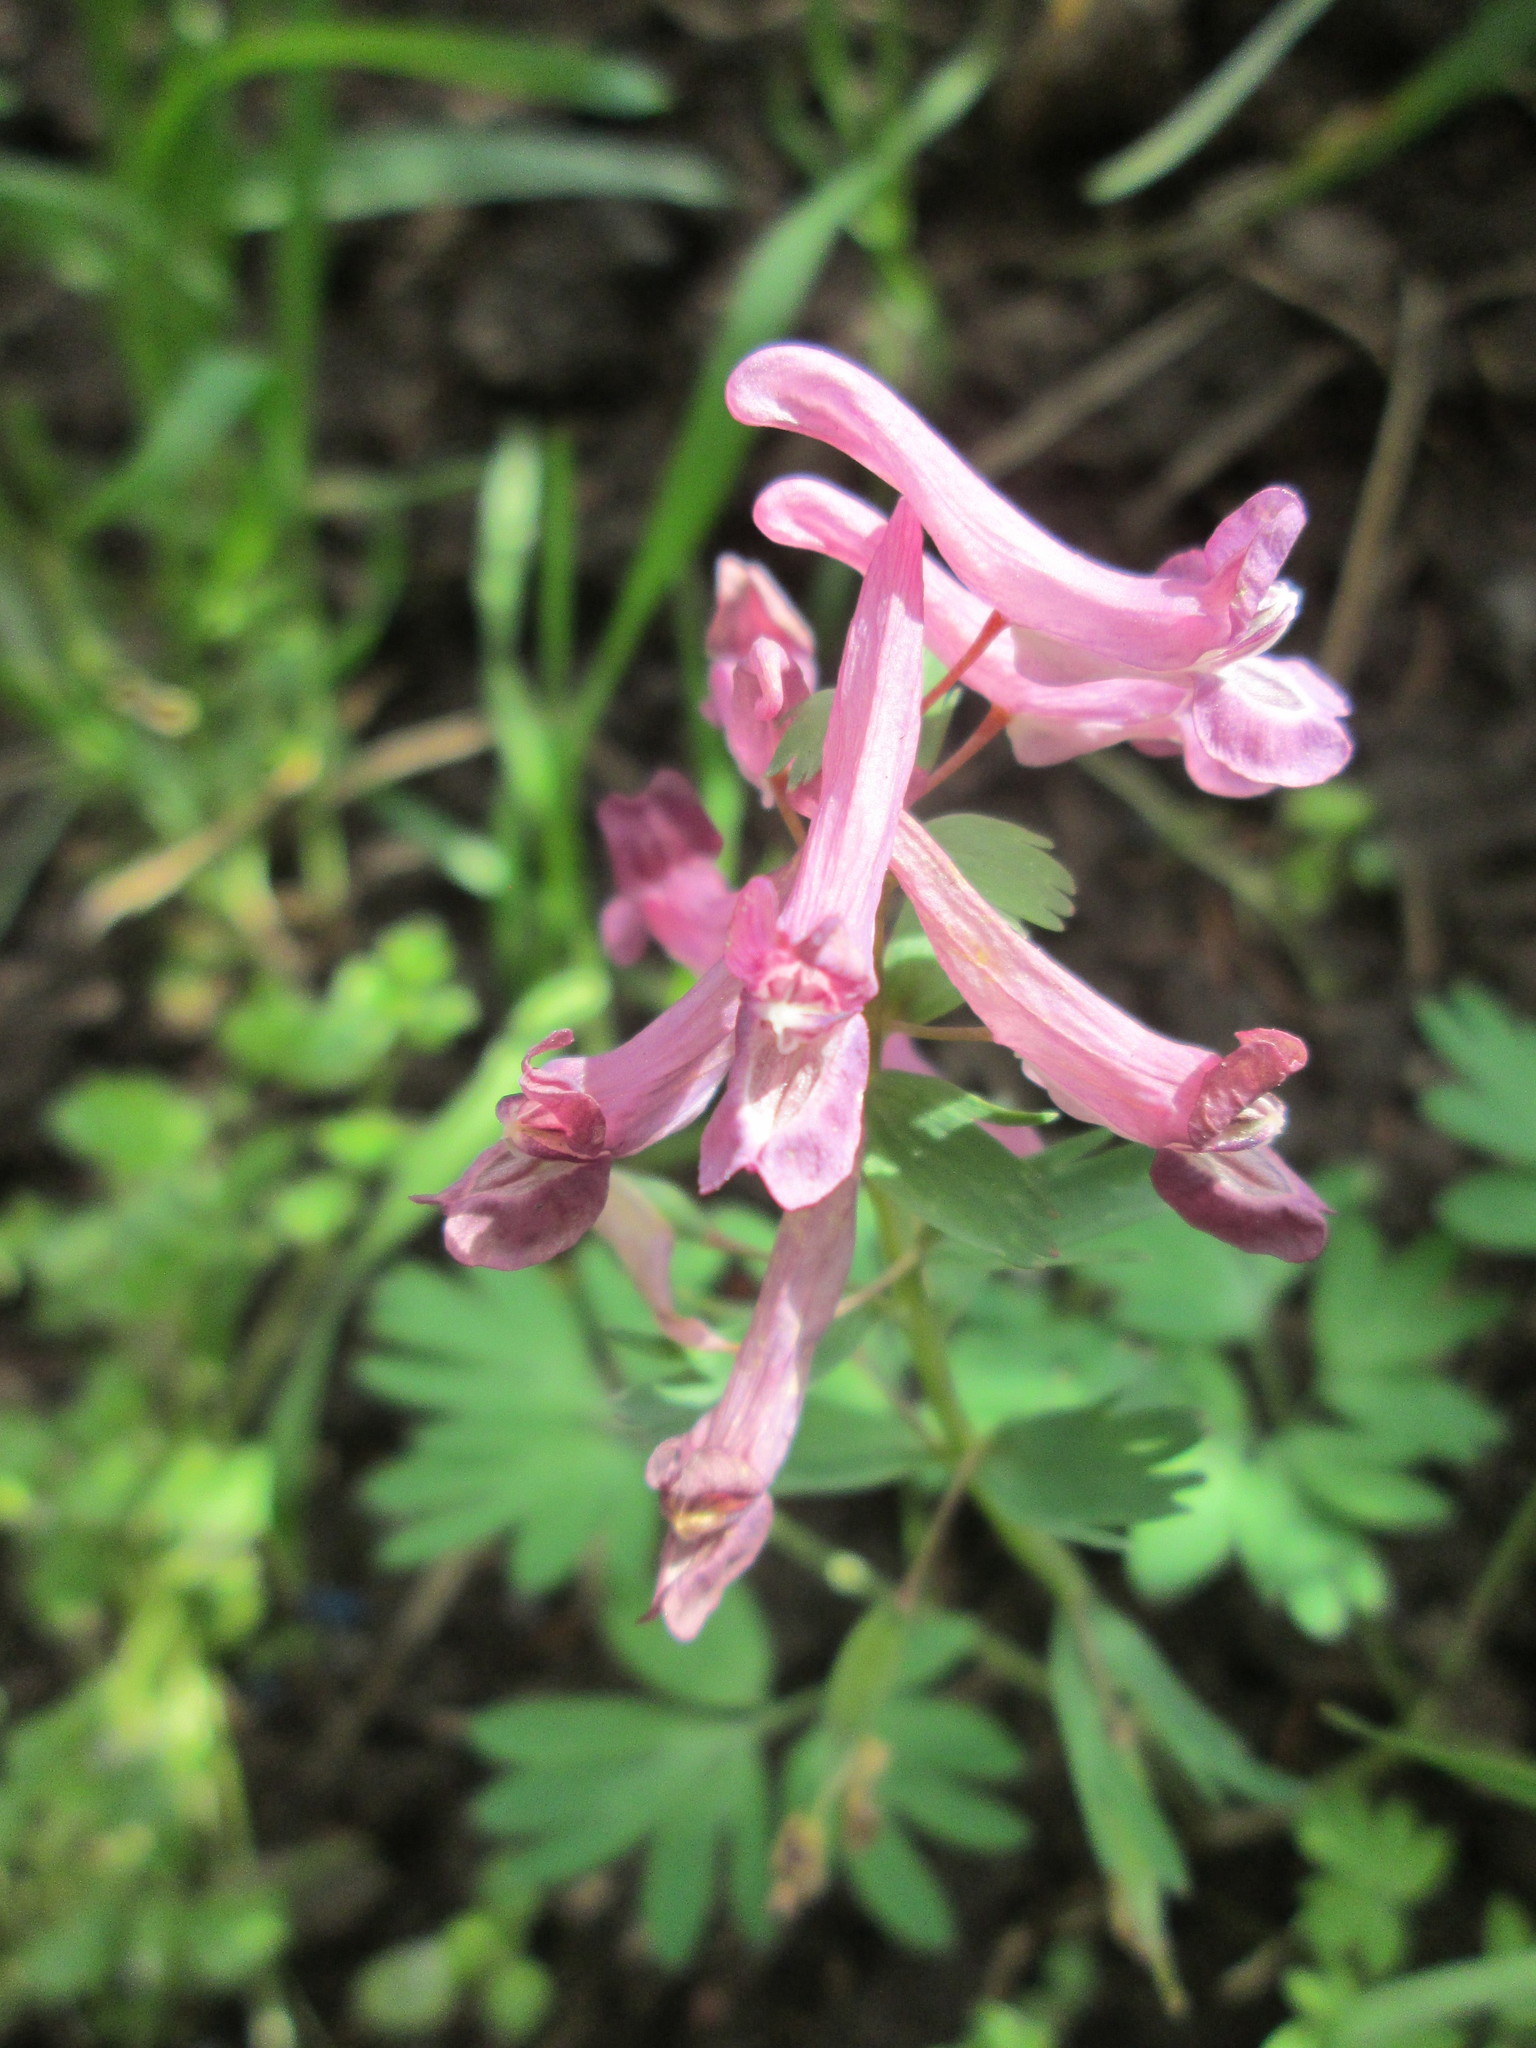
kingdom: Plantae
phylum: Tracheophyta
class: Magnoliopsida
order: Ranunculales
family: Papaveraceae
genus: Corydalis
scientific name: Corydalis solida
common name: Bird-in-a-bush
